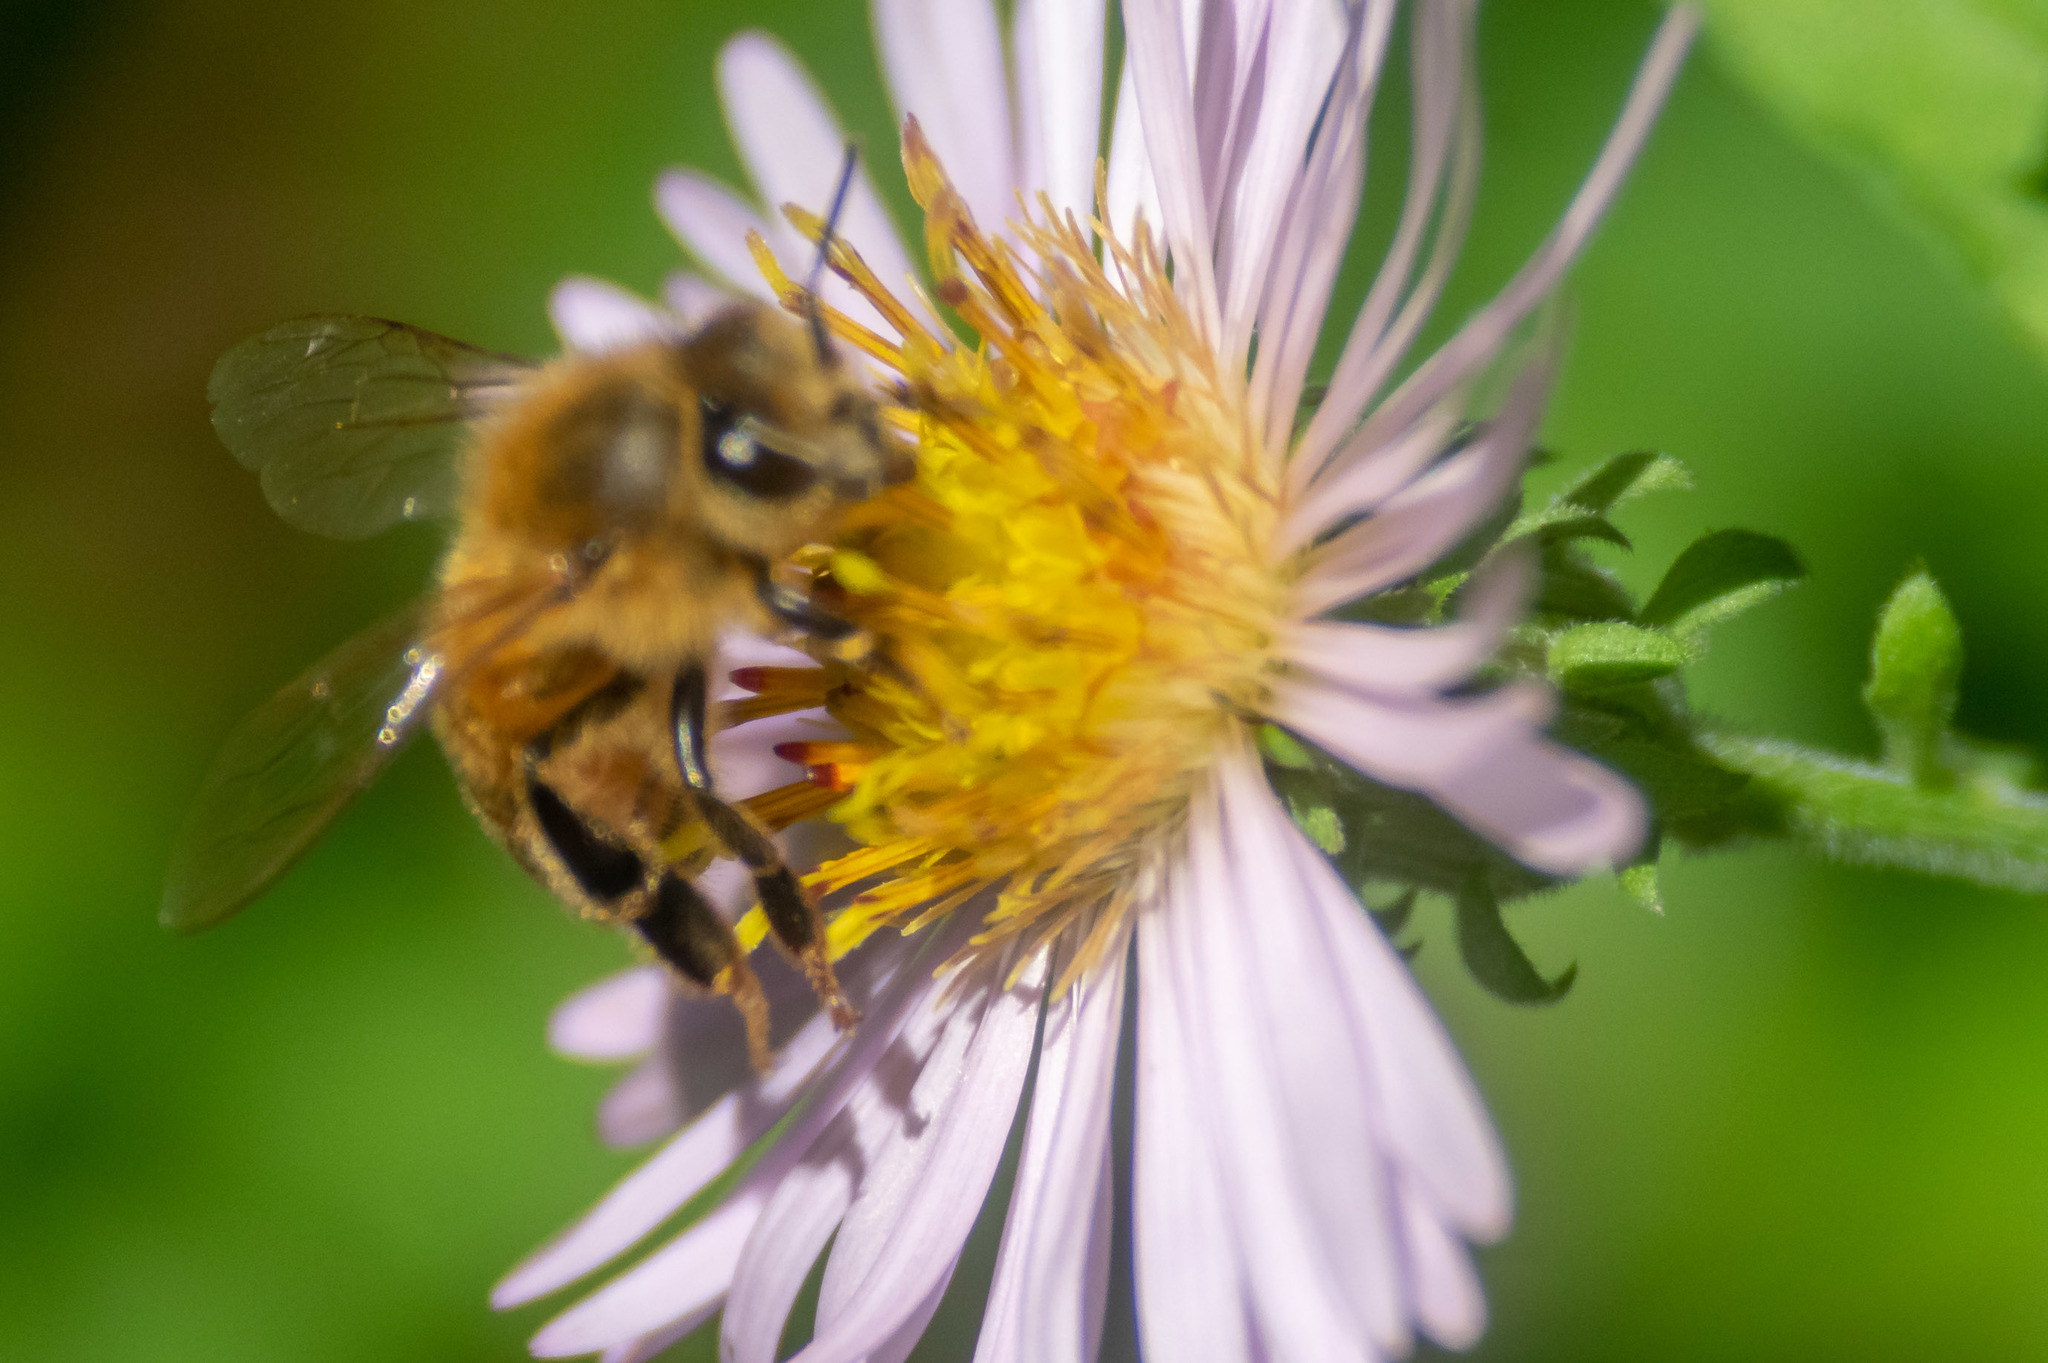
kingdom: Animalia
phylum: Arthropoda
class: Insecta
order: Hymenoptera
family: Apidae
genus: Apis
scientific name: Apis mellifera
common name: Honey bee
